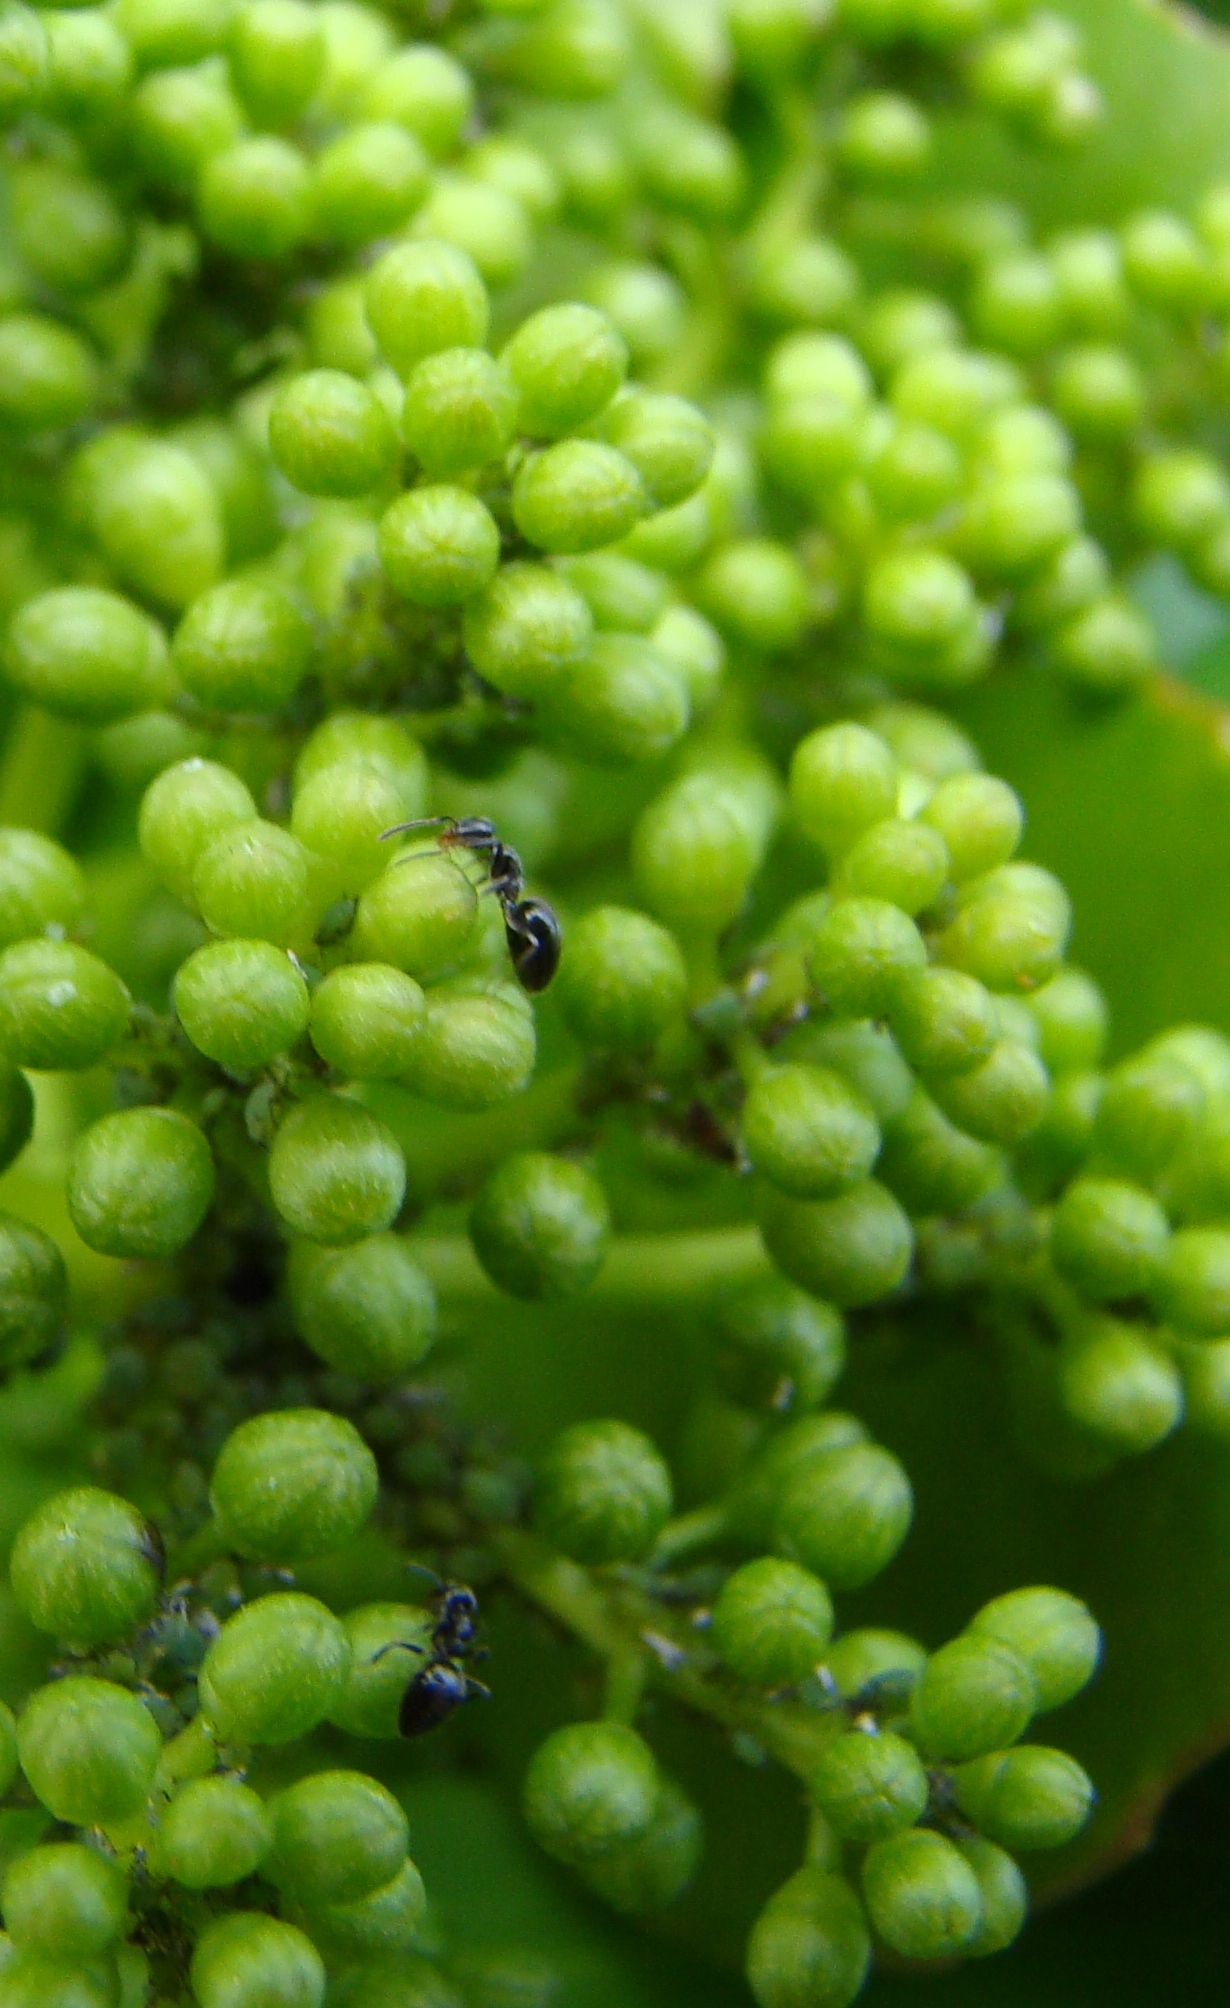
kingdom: Animalia
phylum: Arthropoda
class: Insecta
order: Hymenoptera
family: Formicidae
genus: Technomyrmex
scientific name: Technomyrmex jocosus
